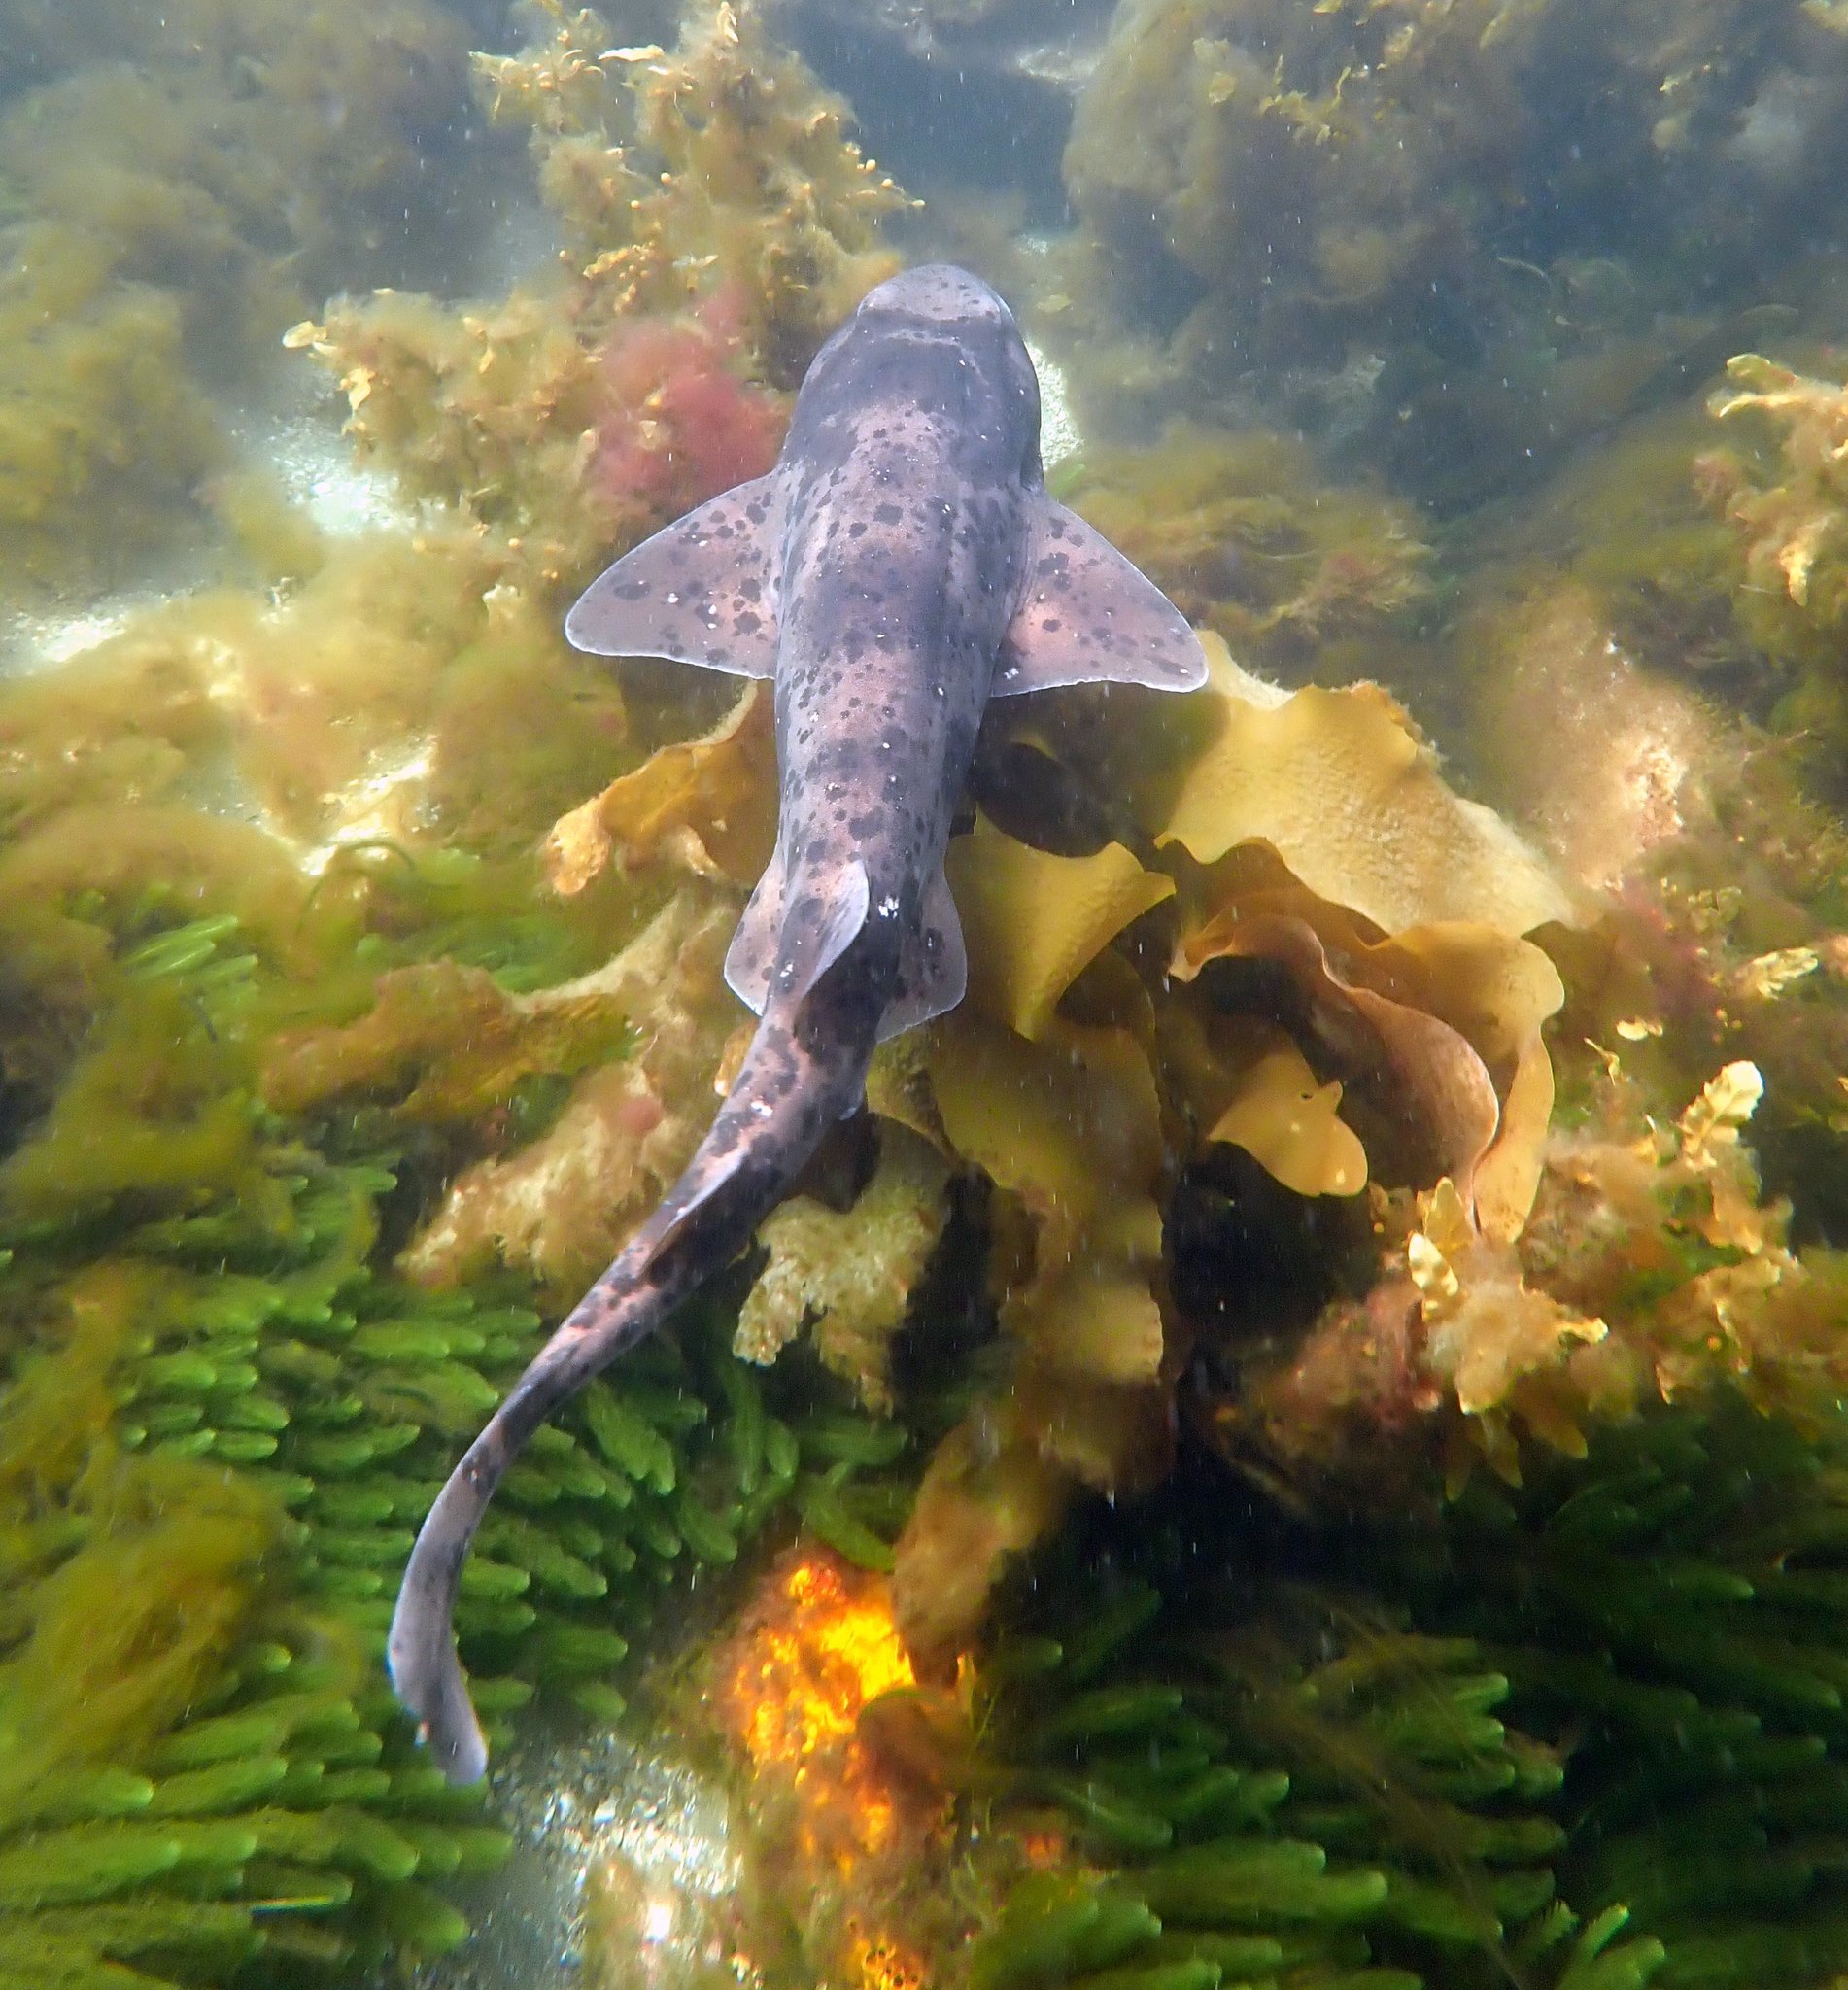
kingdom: Animalia
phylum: Chordata
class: Elasmobranchii
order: Carcharhiniformes
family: Scyliorhinidae
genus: Cephaloscyllium
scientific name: Cephaloscyllium laticeps
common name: Australian swellshark
